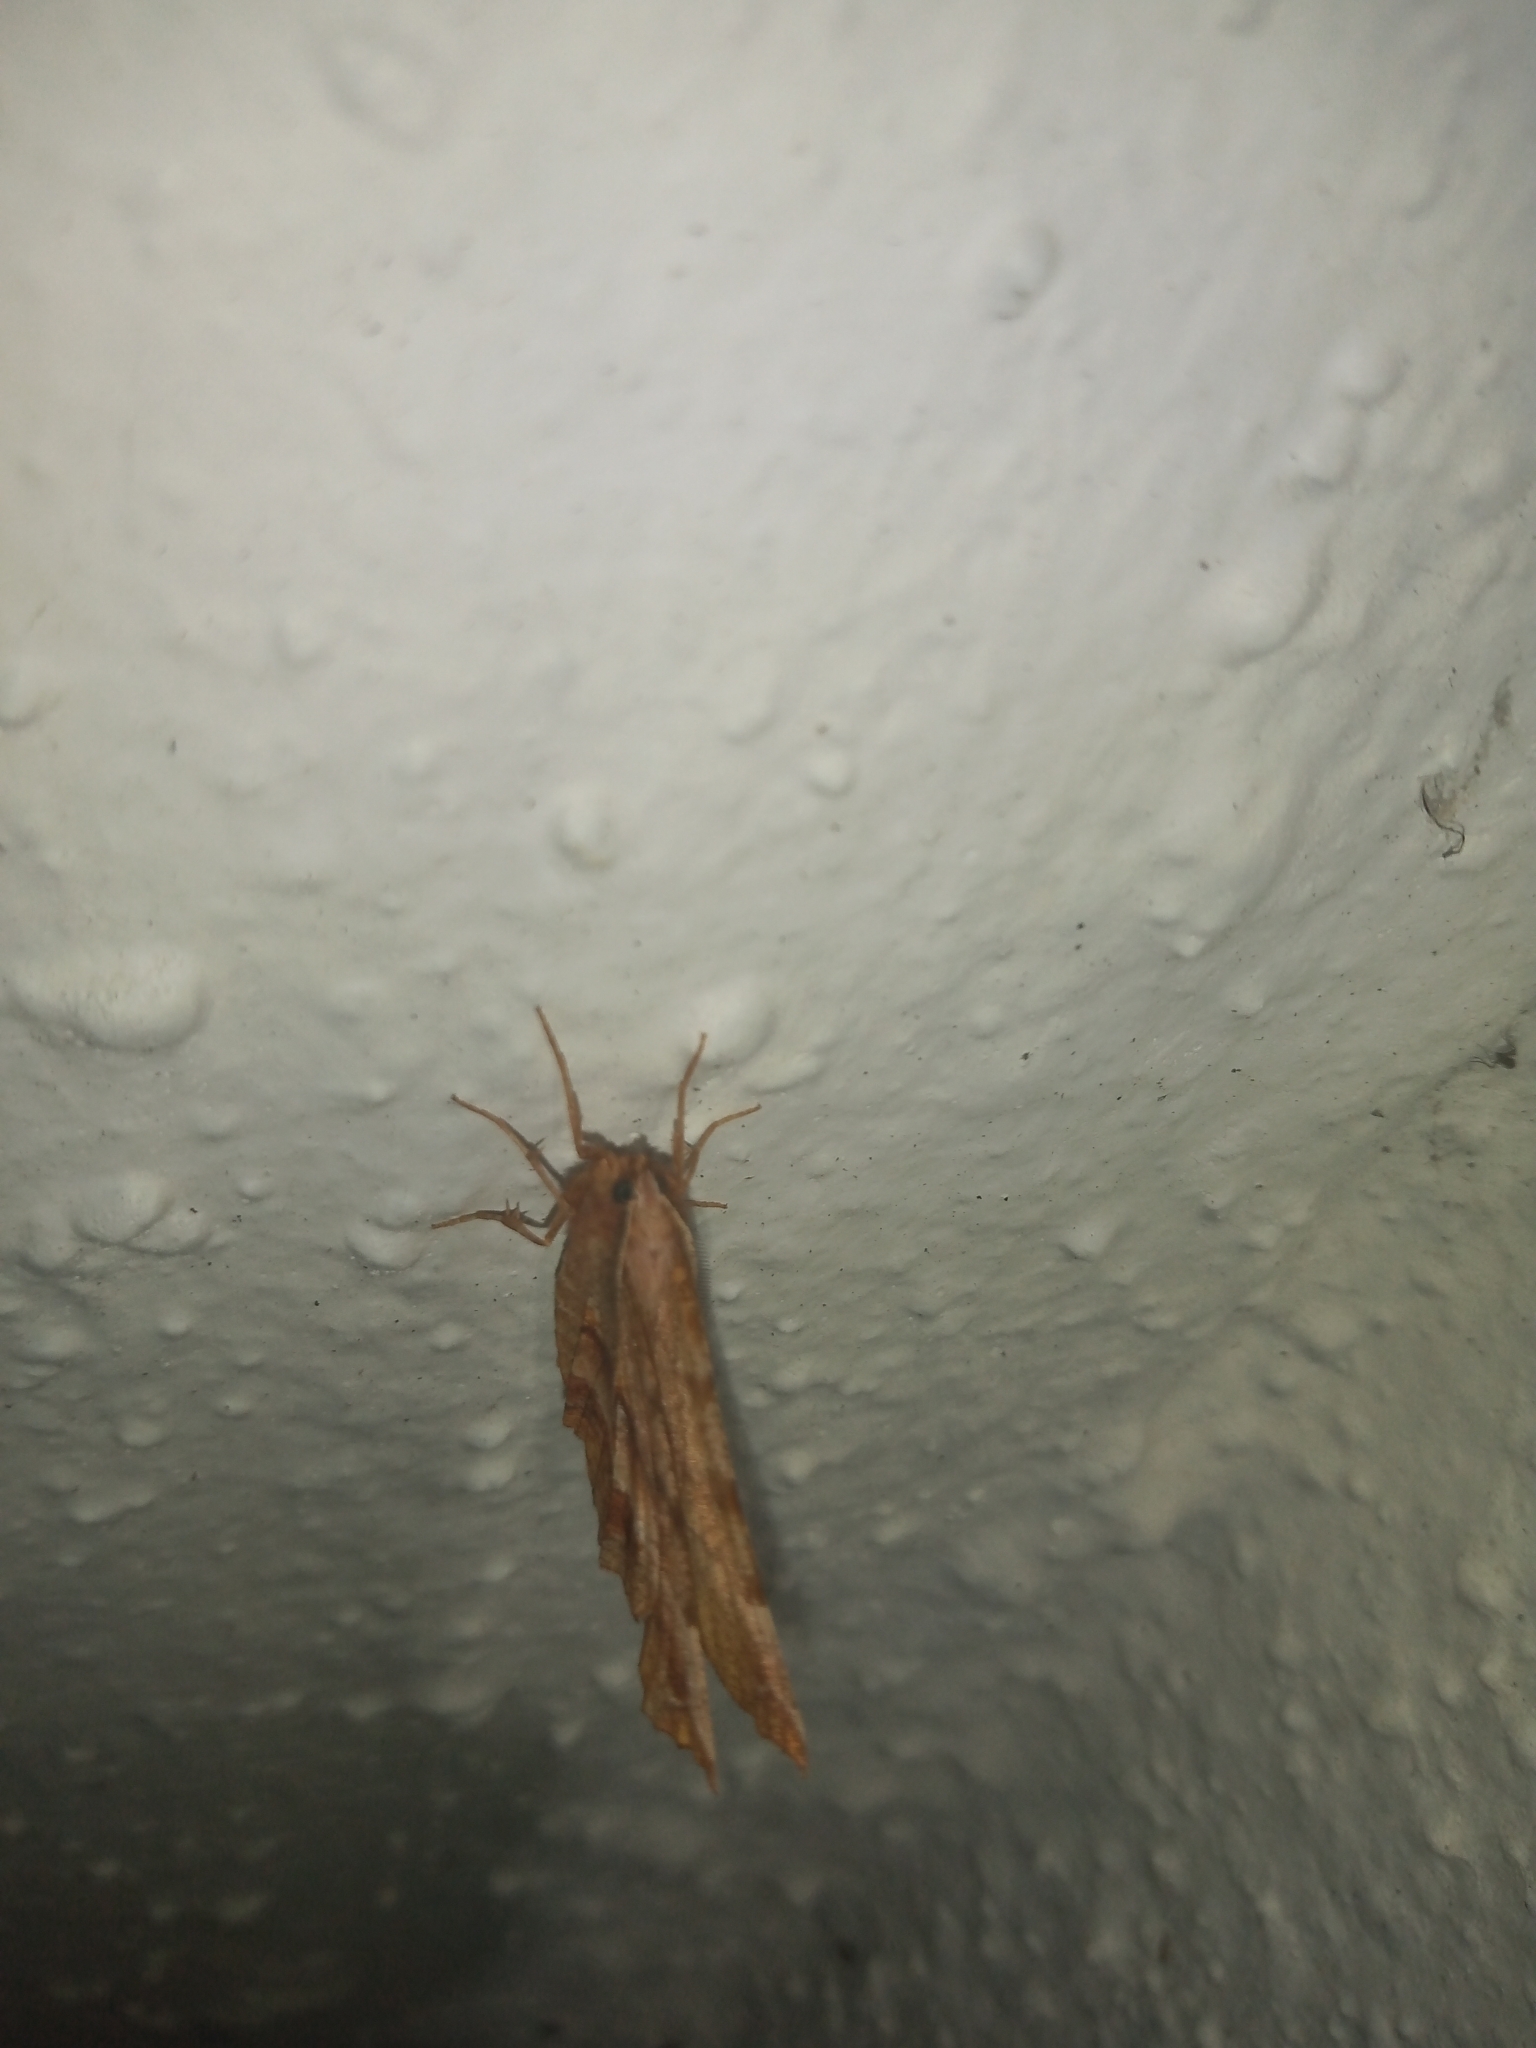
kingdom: Animalia
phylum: Arthropoda
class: Insecta
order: Lepidoptera
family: Geometridae
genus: Selenia
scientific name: Selenia dentaria
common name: Early thorn
